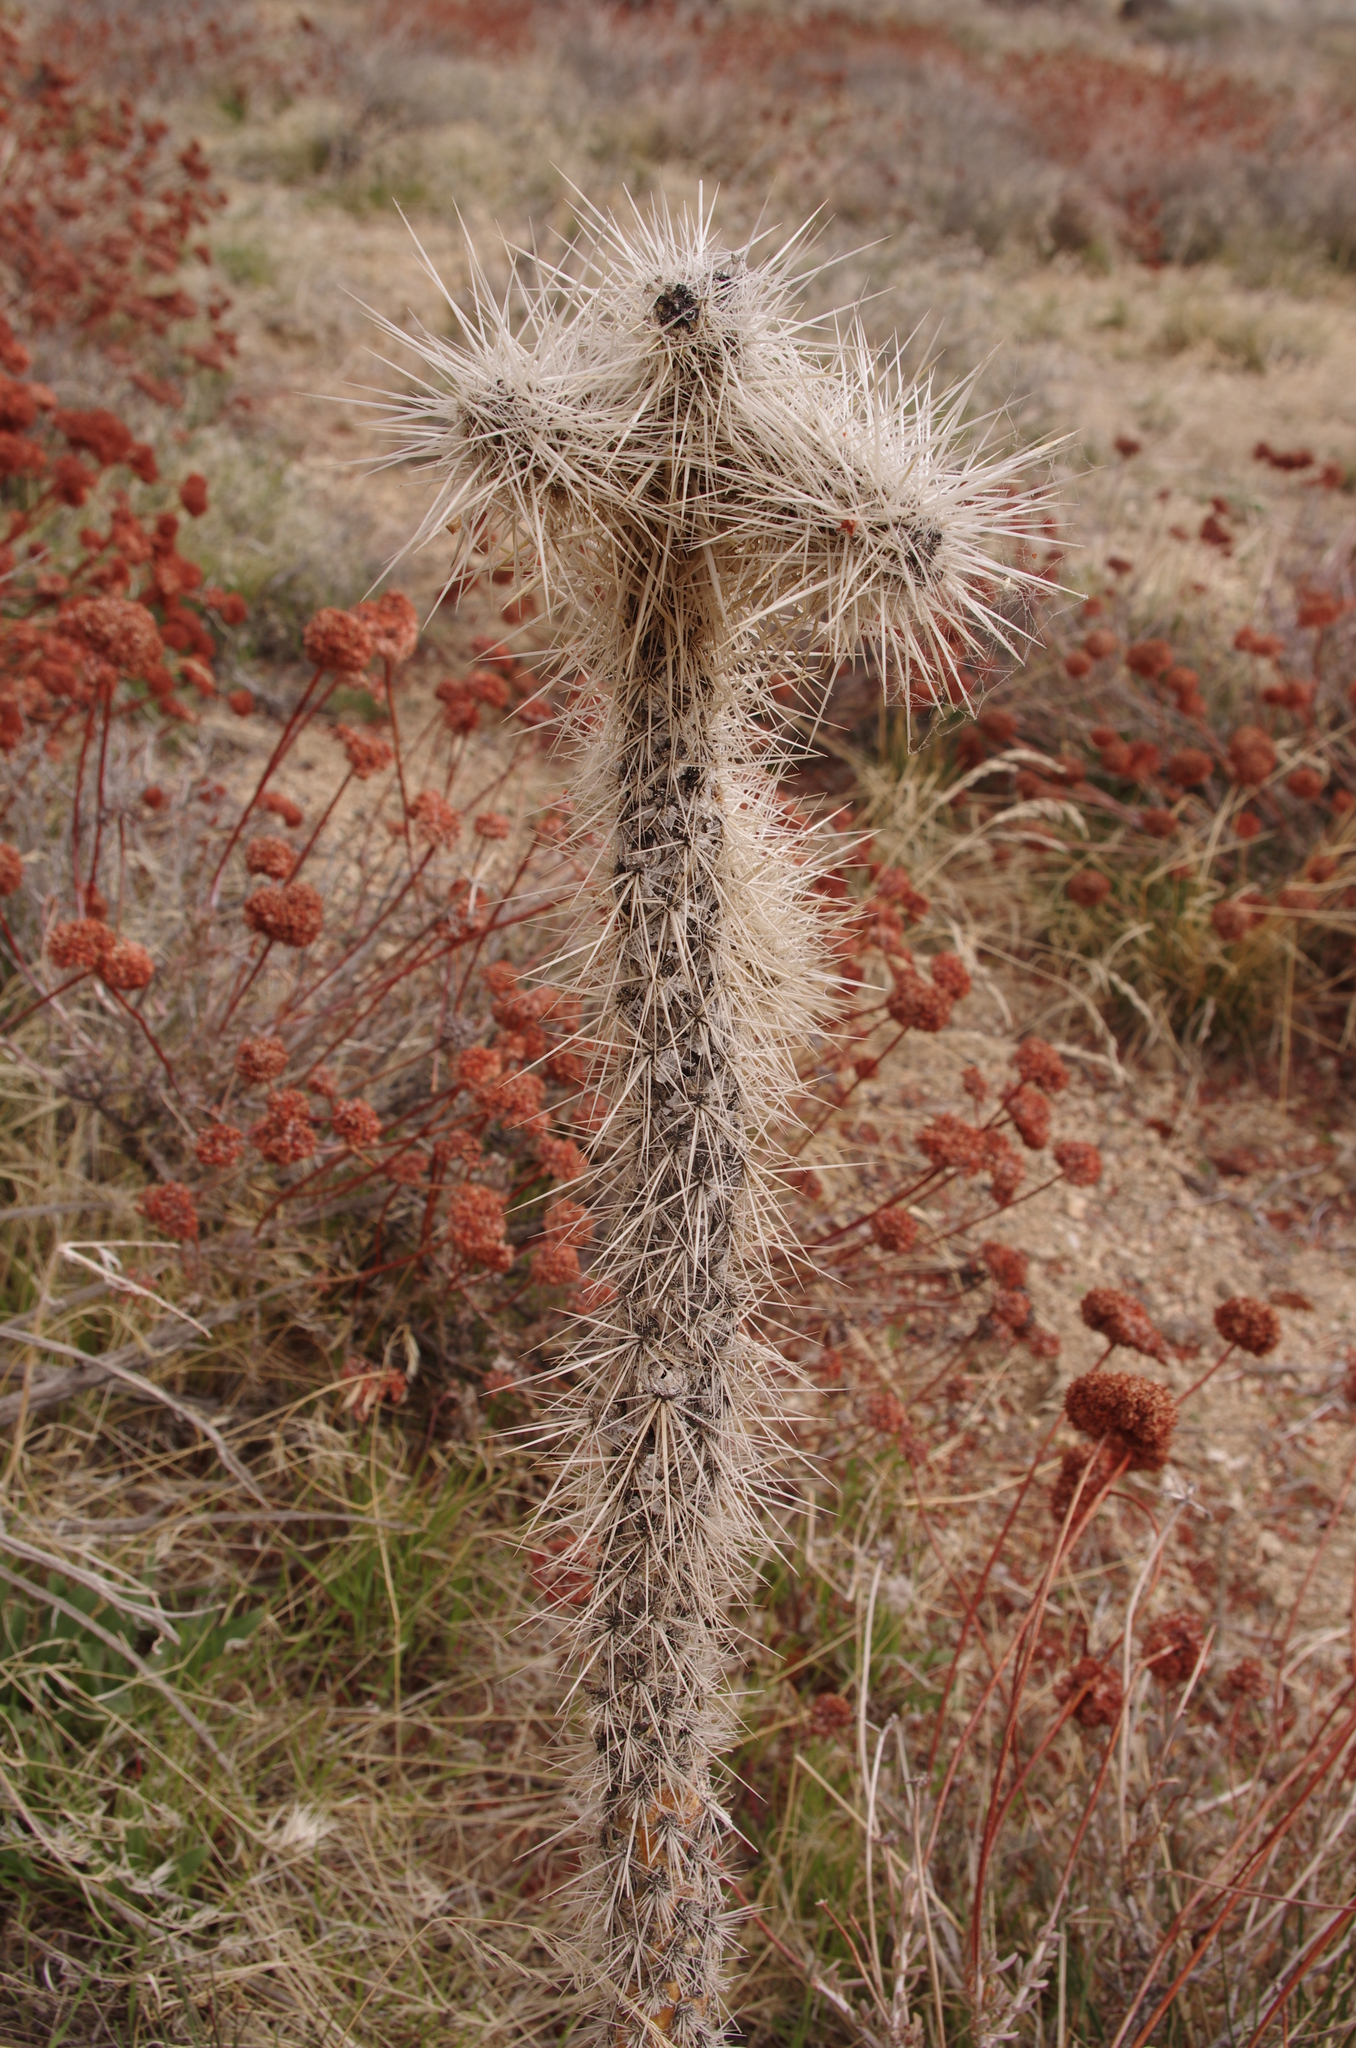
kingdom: Plantae
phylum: Tracheophyta
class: Magnoliopsida
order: Caryophyllales
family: Cactaceae
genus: Cylindropuntia
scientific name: Cylindropuntia echinocarpa
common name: Ground cholla
